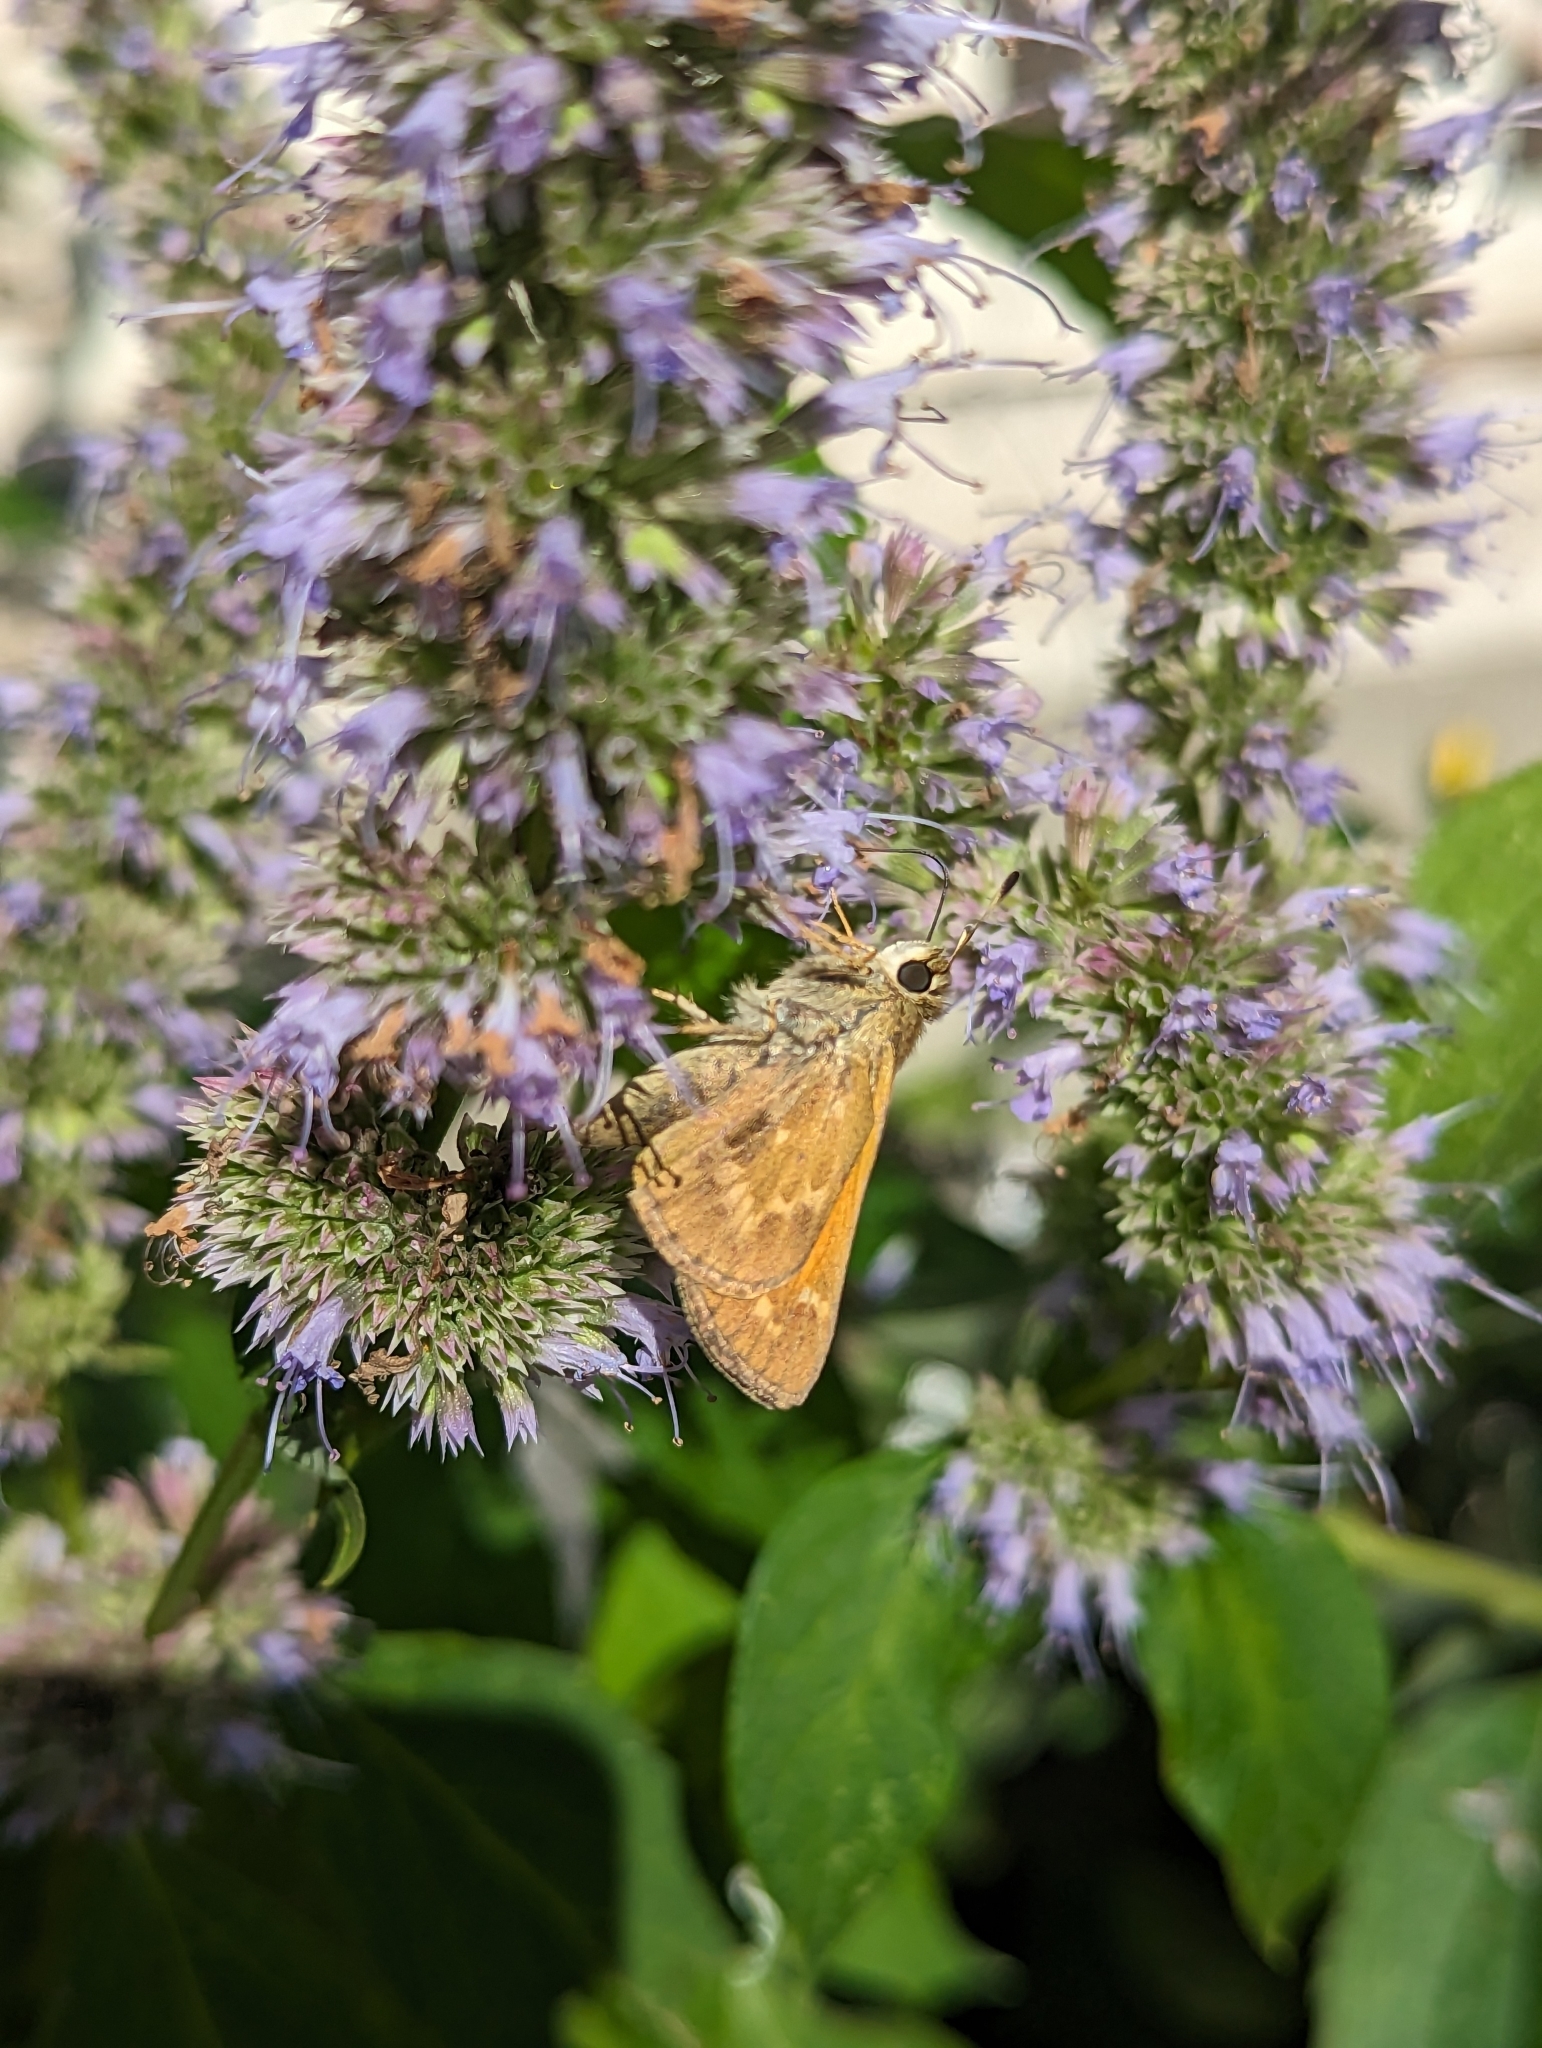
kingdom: Animalia
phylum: Arthropoda
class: Insecta
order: Lepidoptera
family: Hesperiidae
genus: Atalopedes
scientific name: Atalopedes
